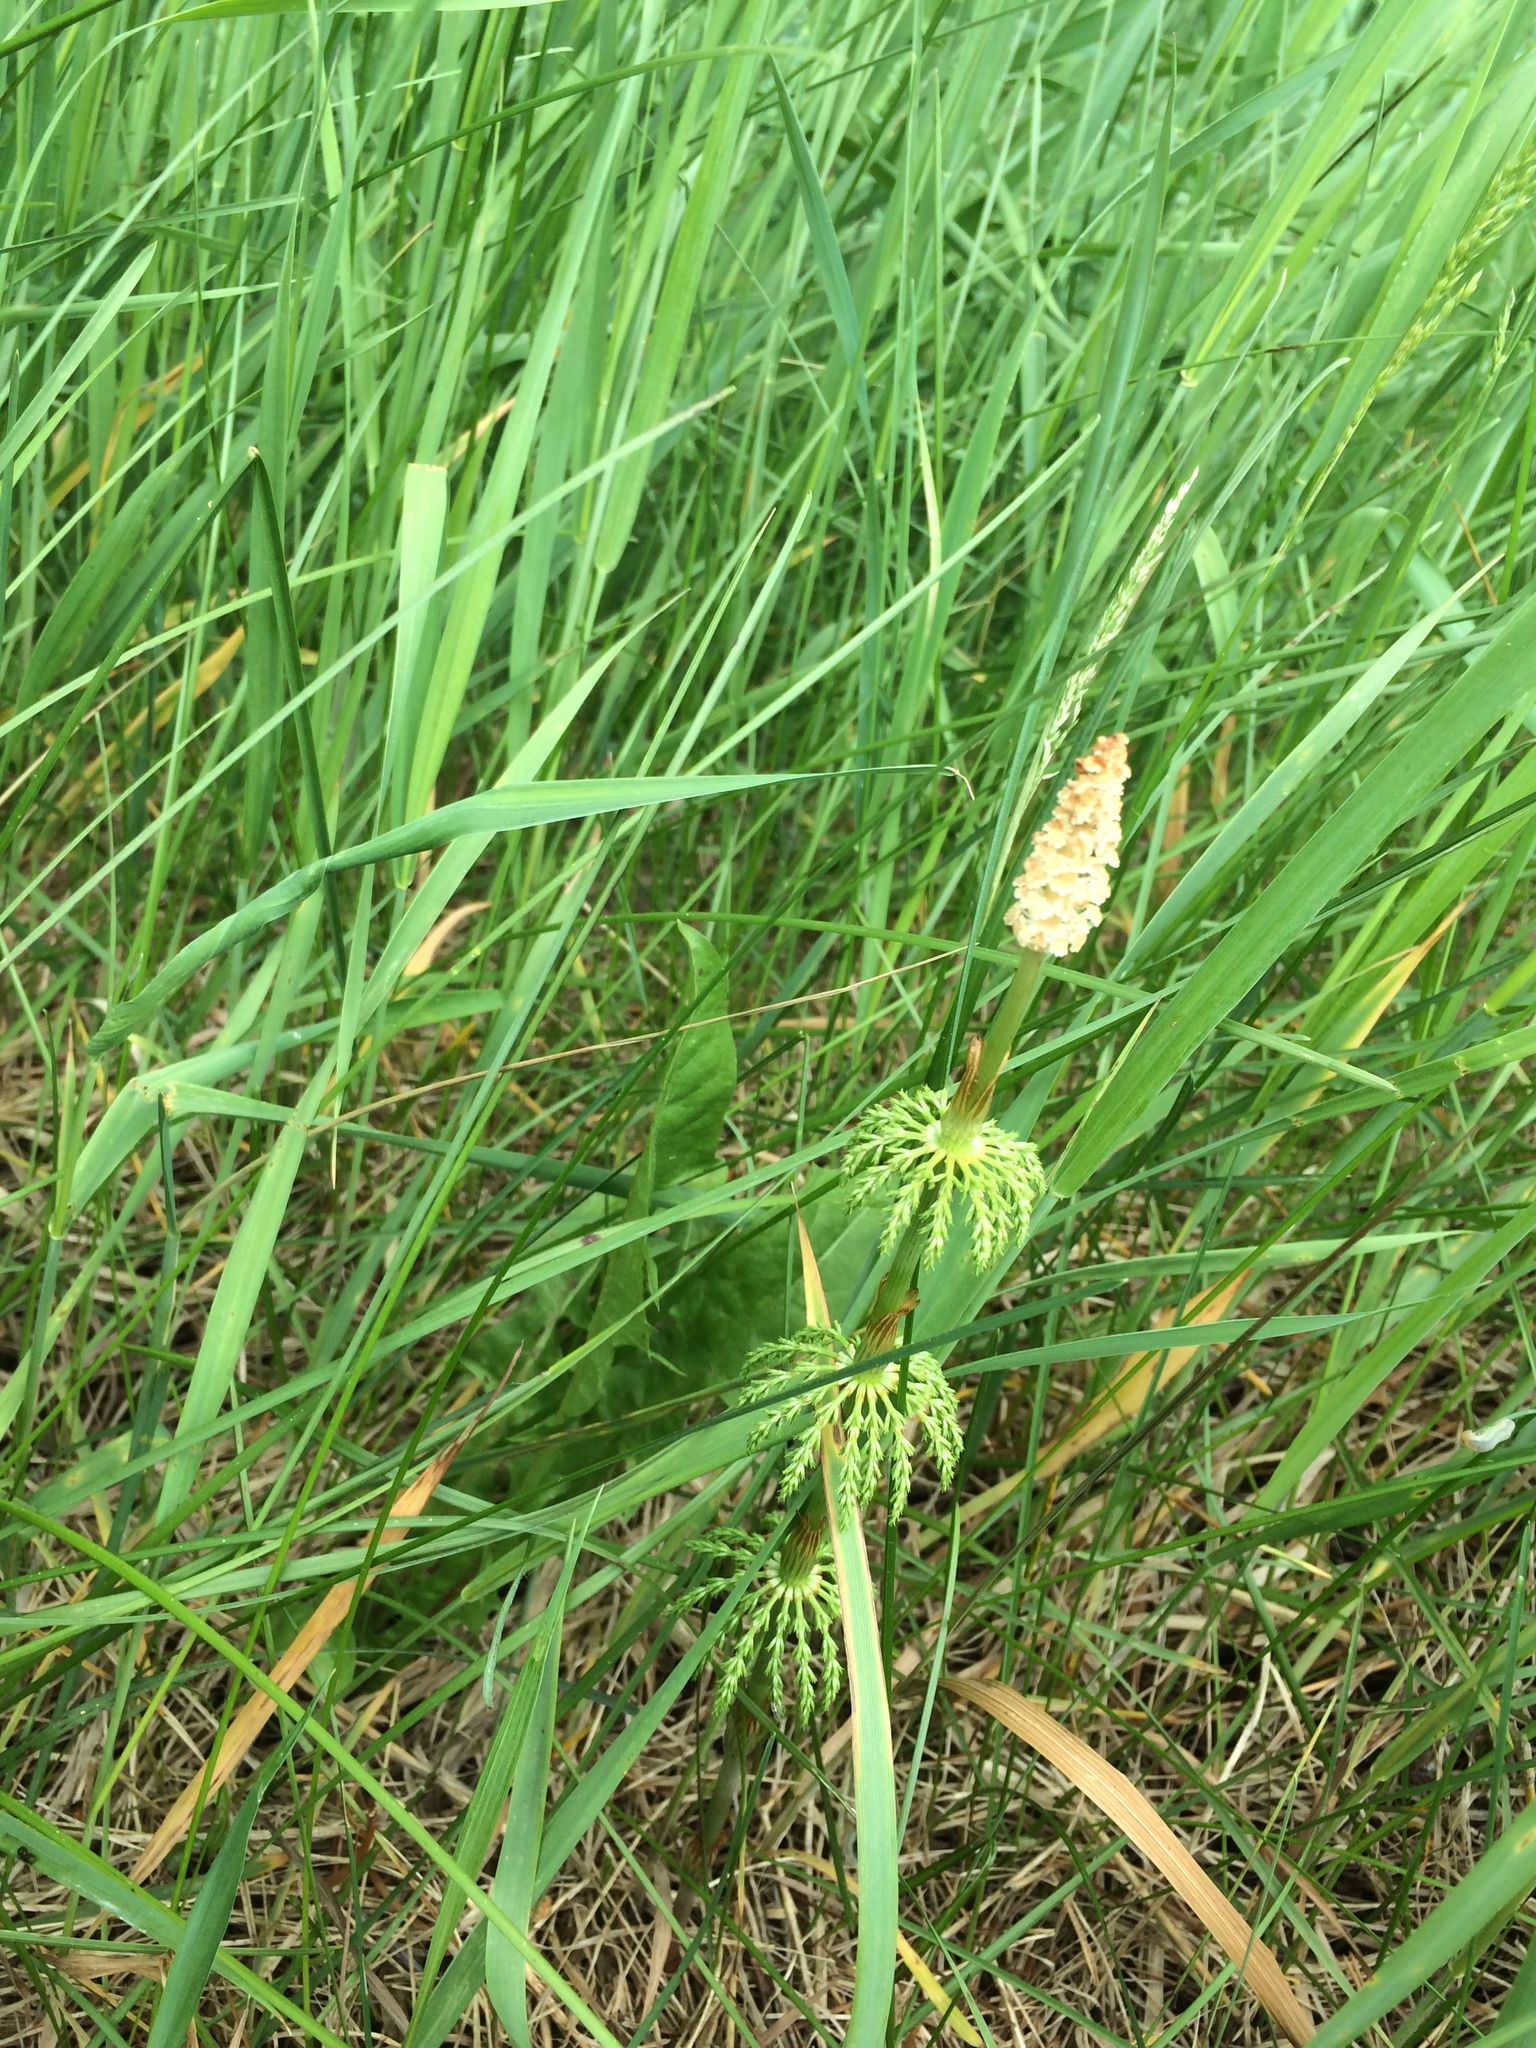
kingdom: Plantae
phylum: Tracheophyta
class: Polypodiopsida
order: Equisetales
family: Equisetaceae
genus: Equisetum
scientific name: Equisetum sylvaticum
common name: Wood horsetail
